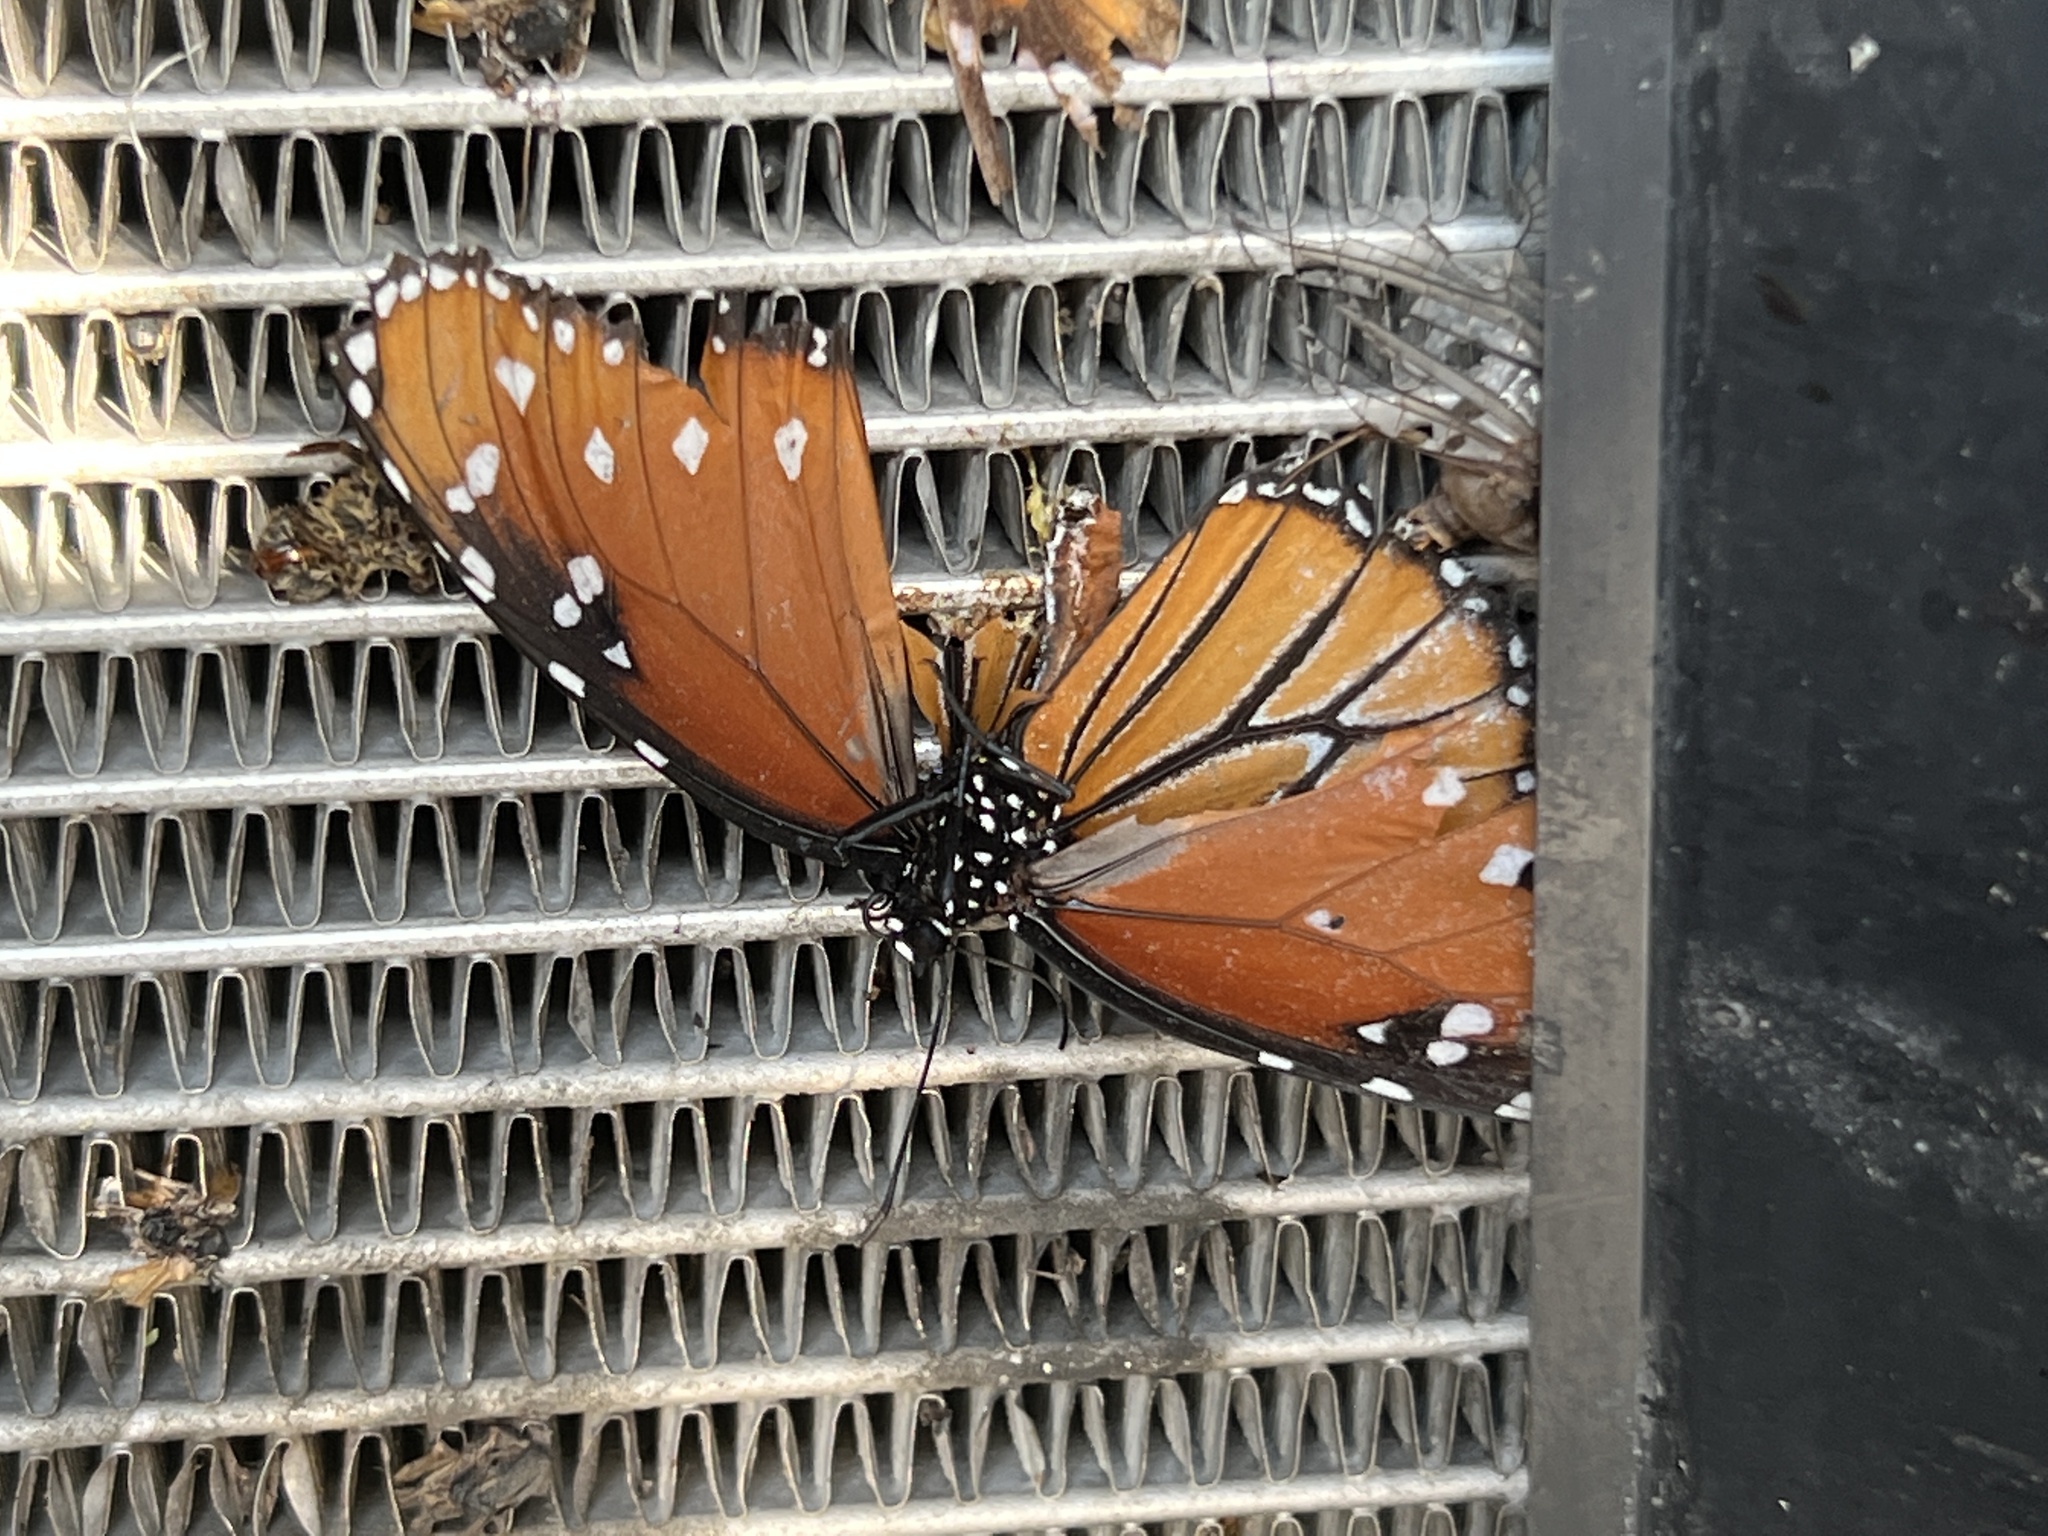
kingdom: Animalia
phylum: Arthropoda
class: Insecta
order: Lepidoptera
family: Nymphalidae
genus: Danaus
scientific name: Danaus gilippus
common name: Queen
